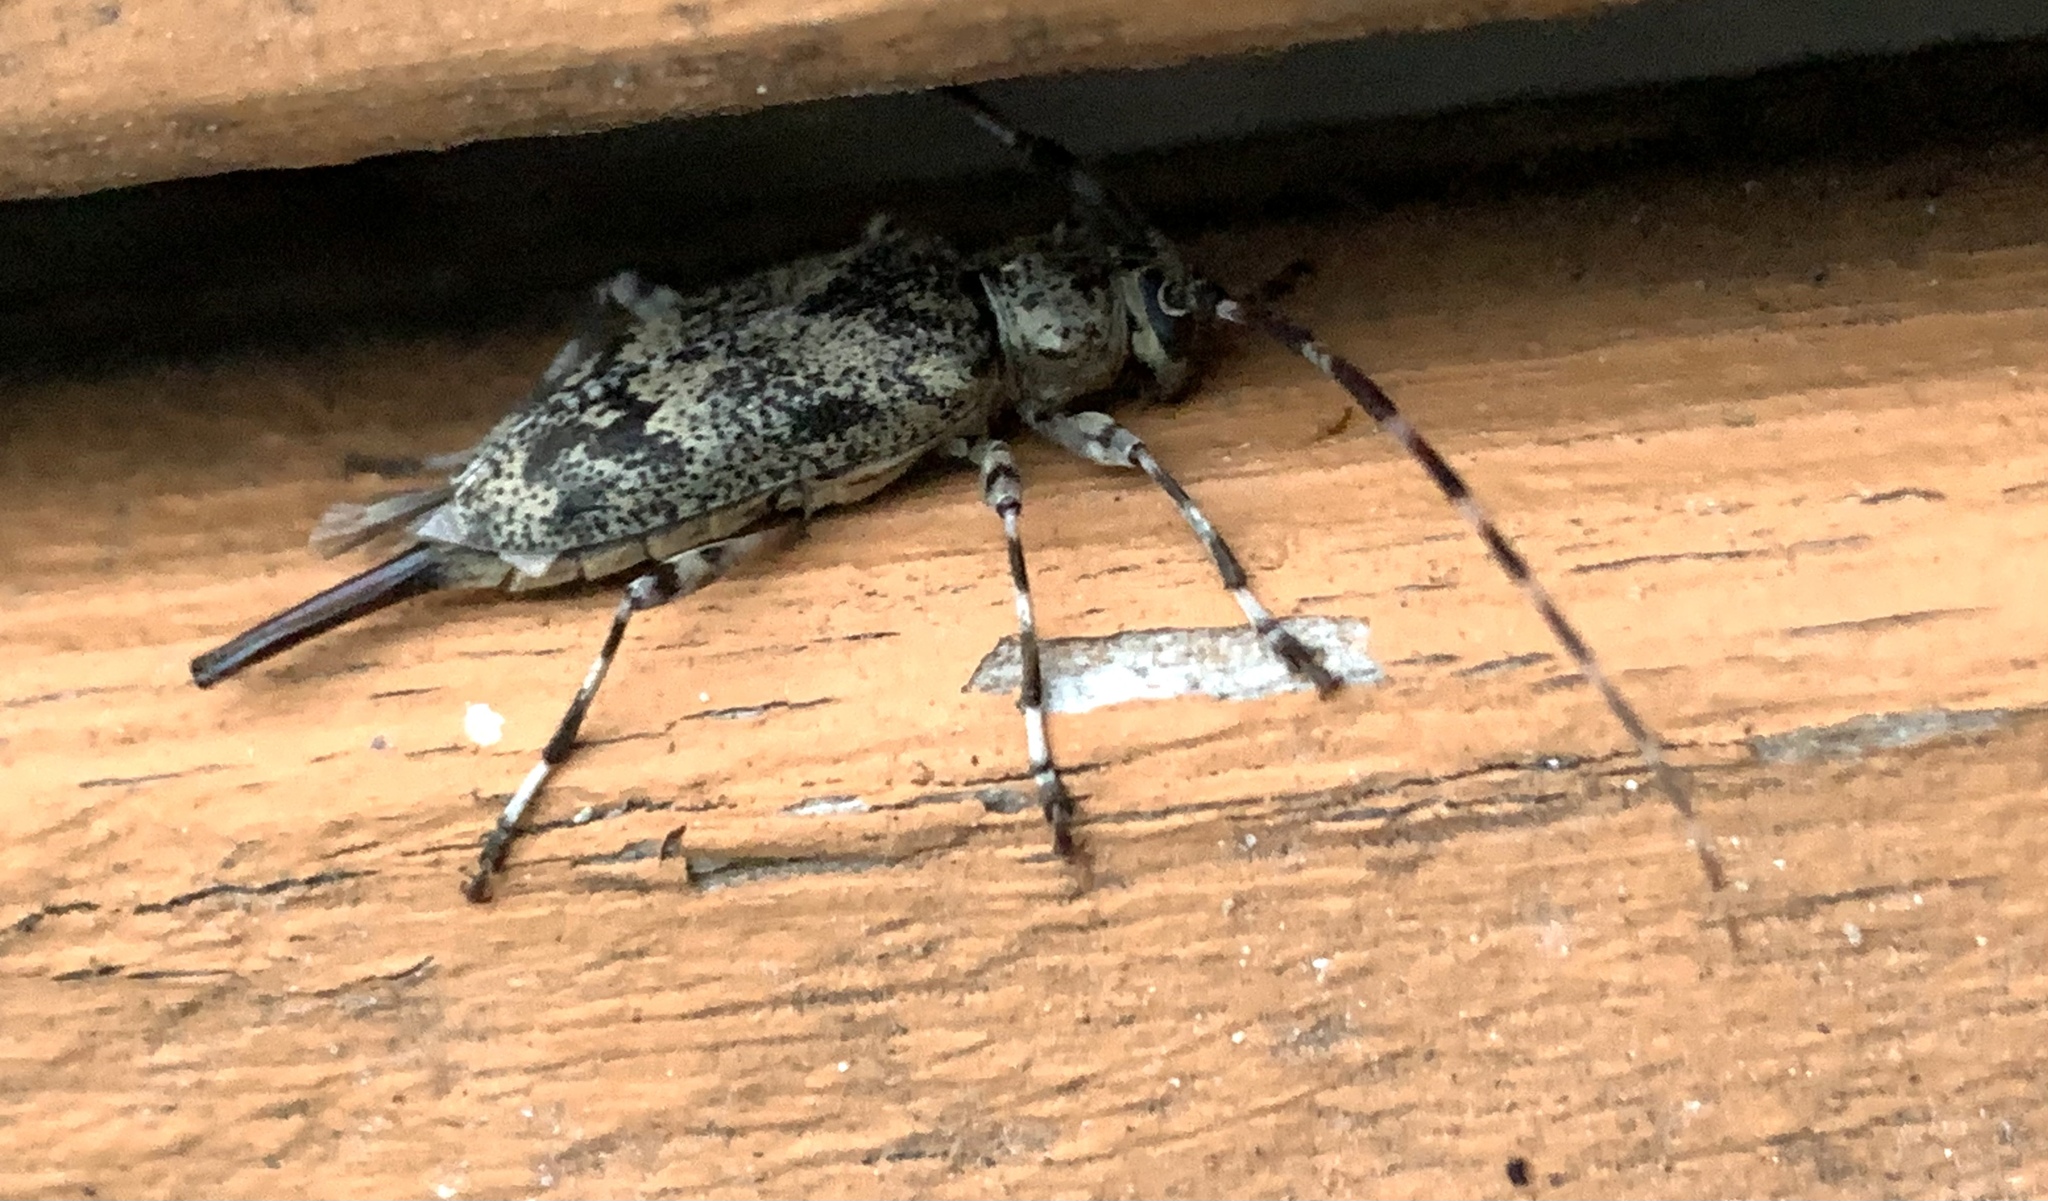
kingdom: Animalia
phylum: Arthropoda
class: Insecta
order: Coleoptera
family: Cerambycidae
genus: Graphisurus
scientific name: Graphisurus fasciatus
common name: Banded graphisurus
